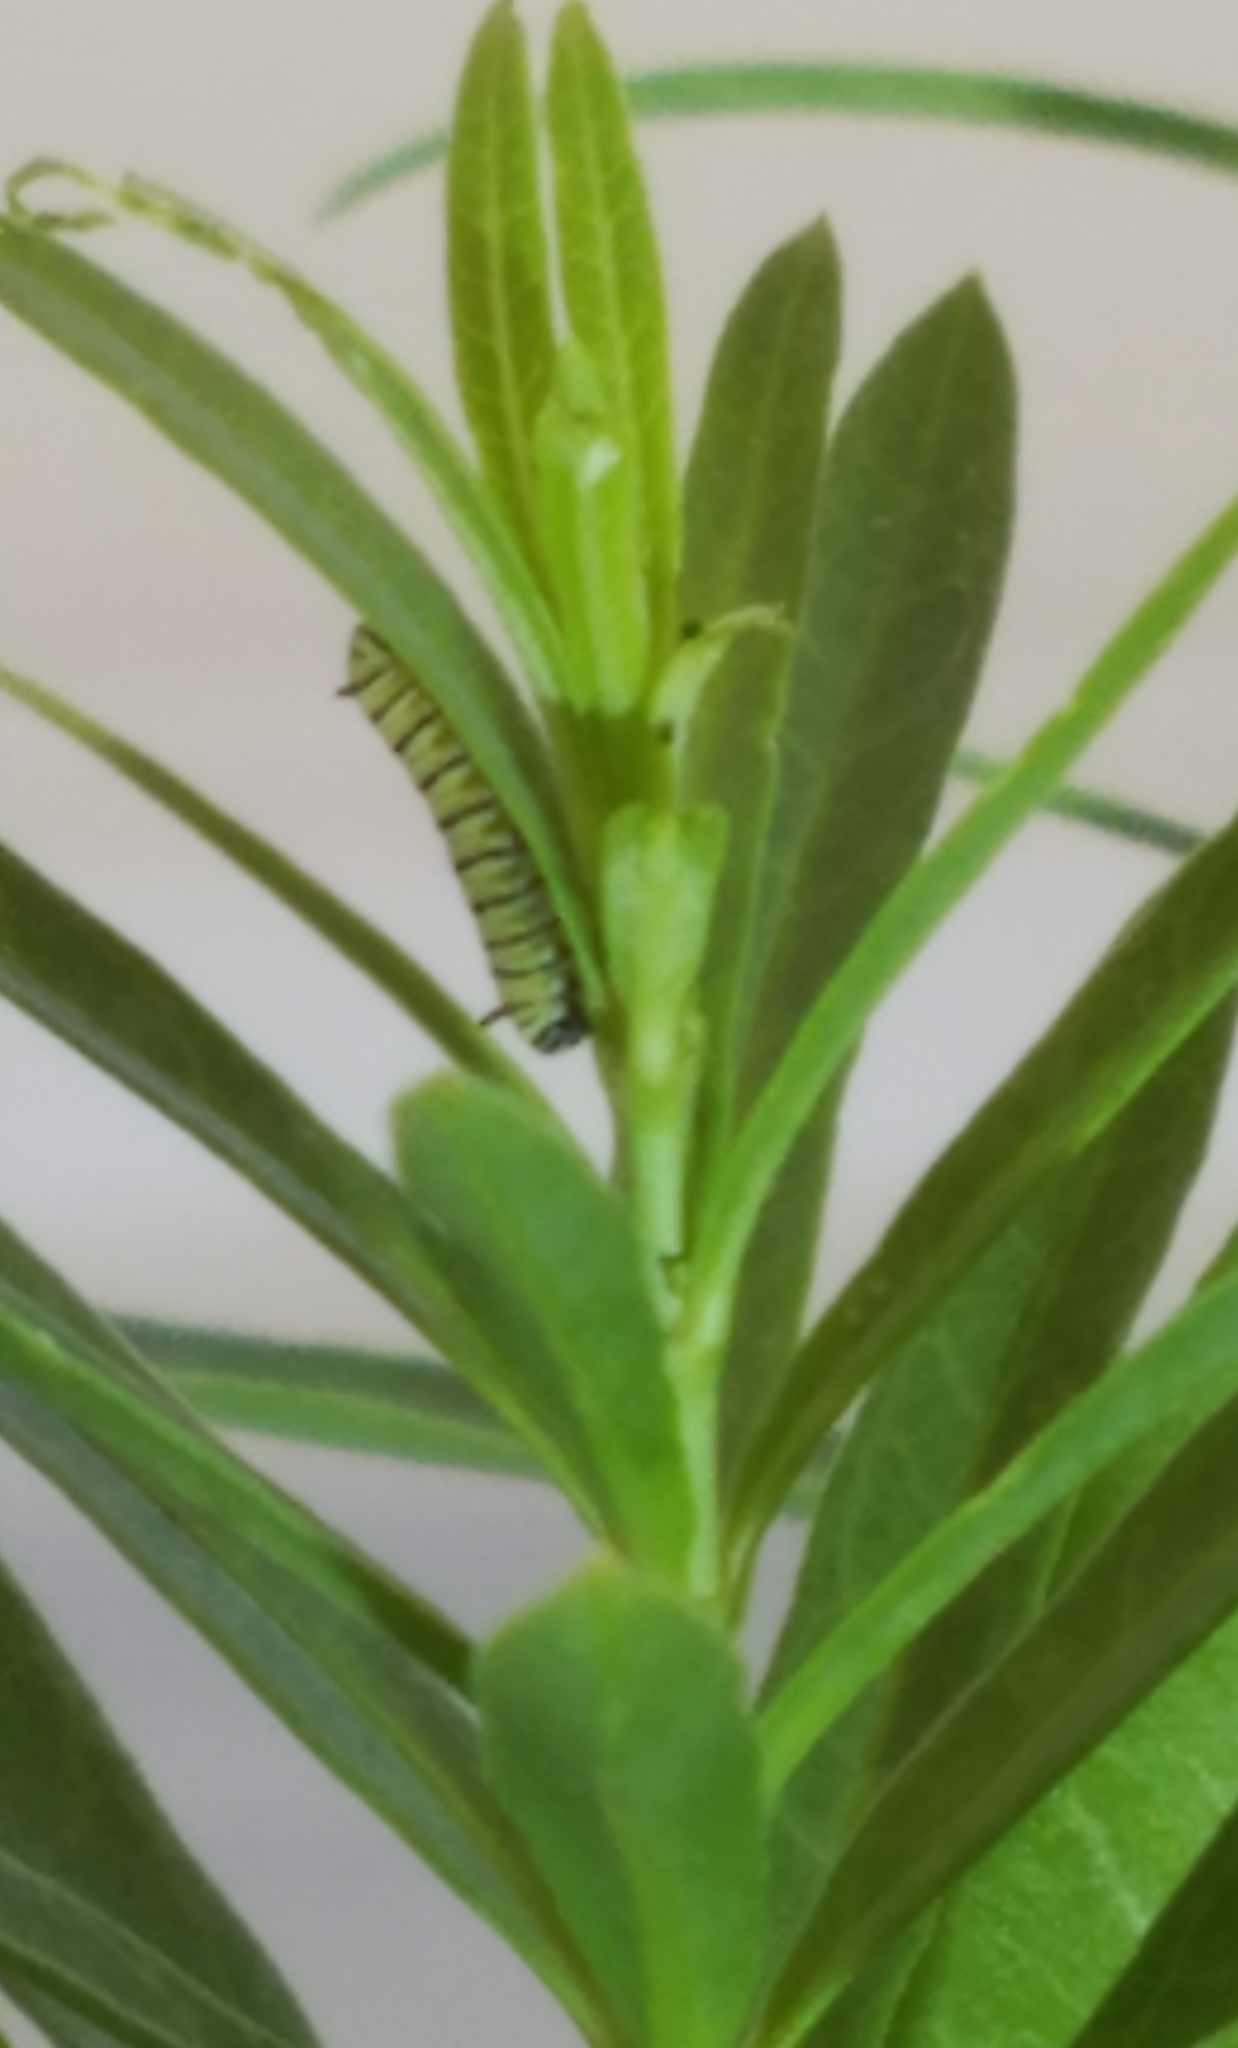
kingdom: Animalia
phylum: Arthropoda
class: Insecta
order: Lepidoptera
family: Nymphalidae
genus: Danaus
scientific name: Danaus plexippus
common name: Monarch
